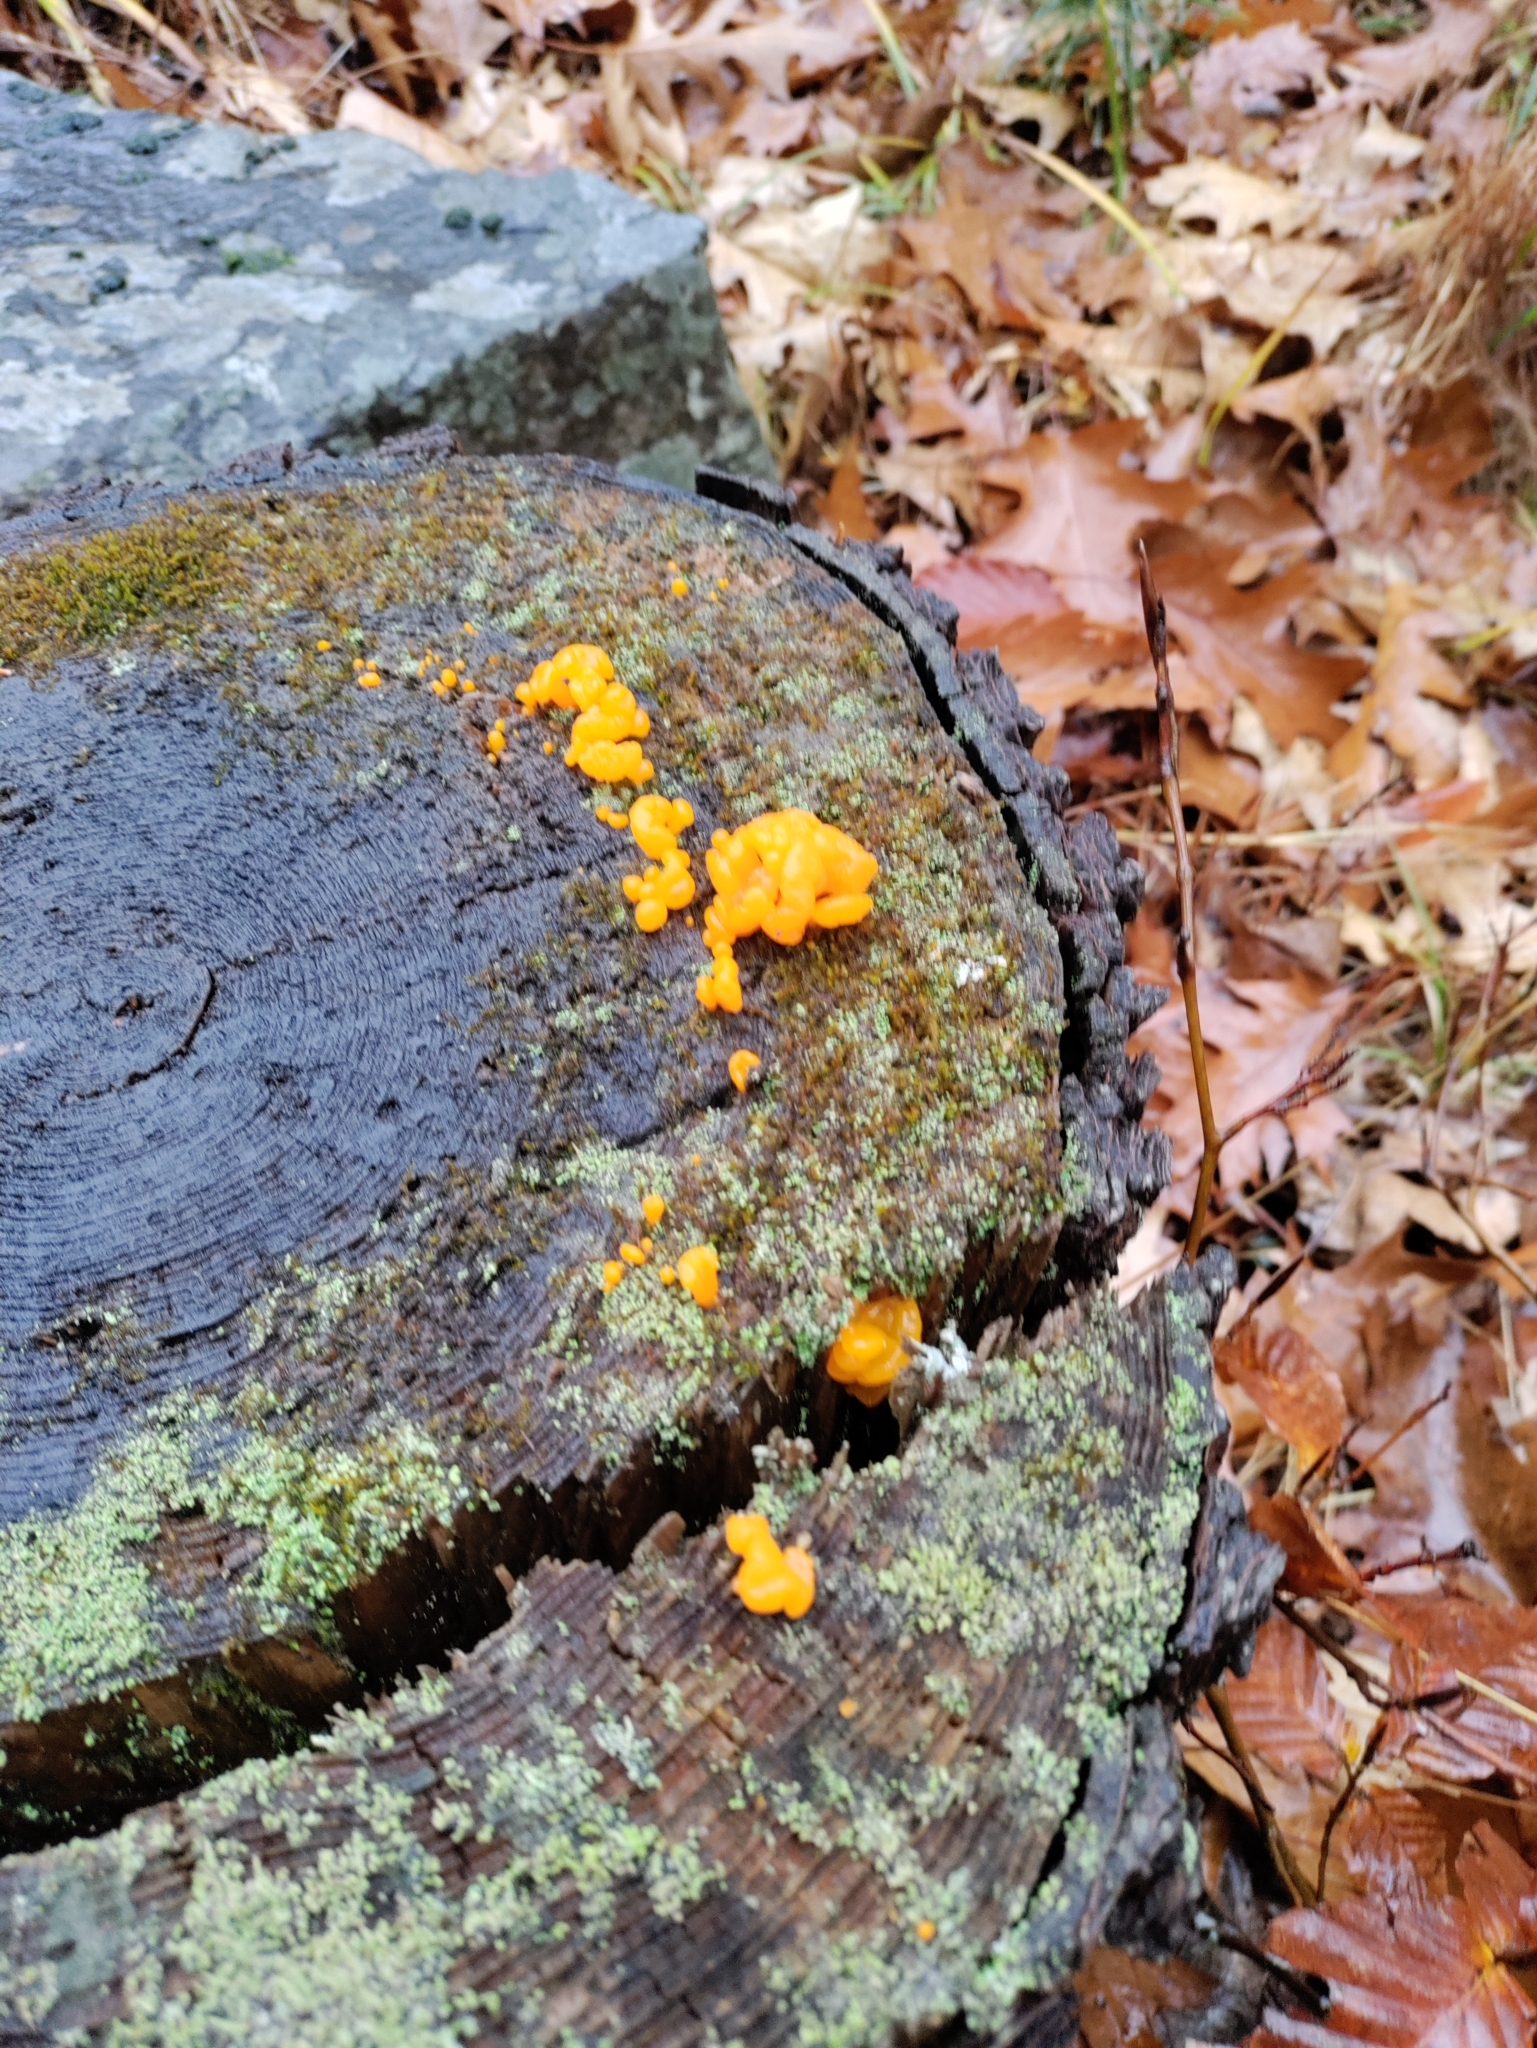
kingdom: Fungi
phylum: Basidiomycota
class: Dacrymycetes
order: Dacrymycetales
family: Dacrymycetaceae
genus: Dacrymyces
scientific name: Dacrymyces chrysospermus
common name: Orange jelly spot
